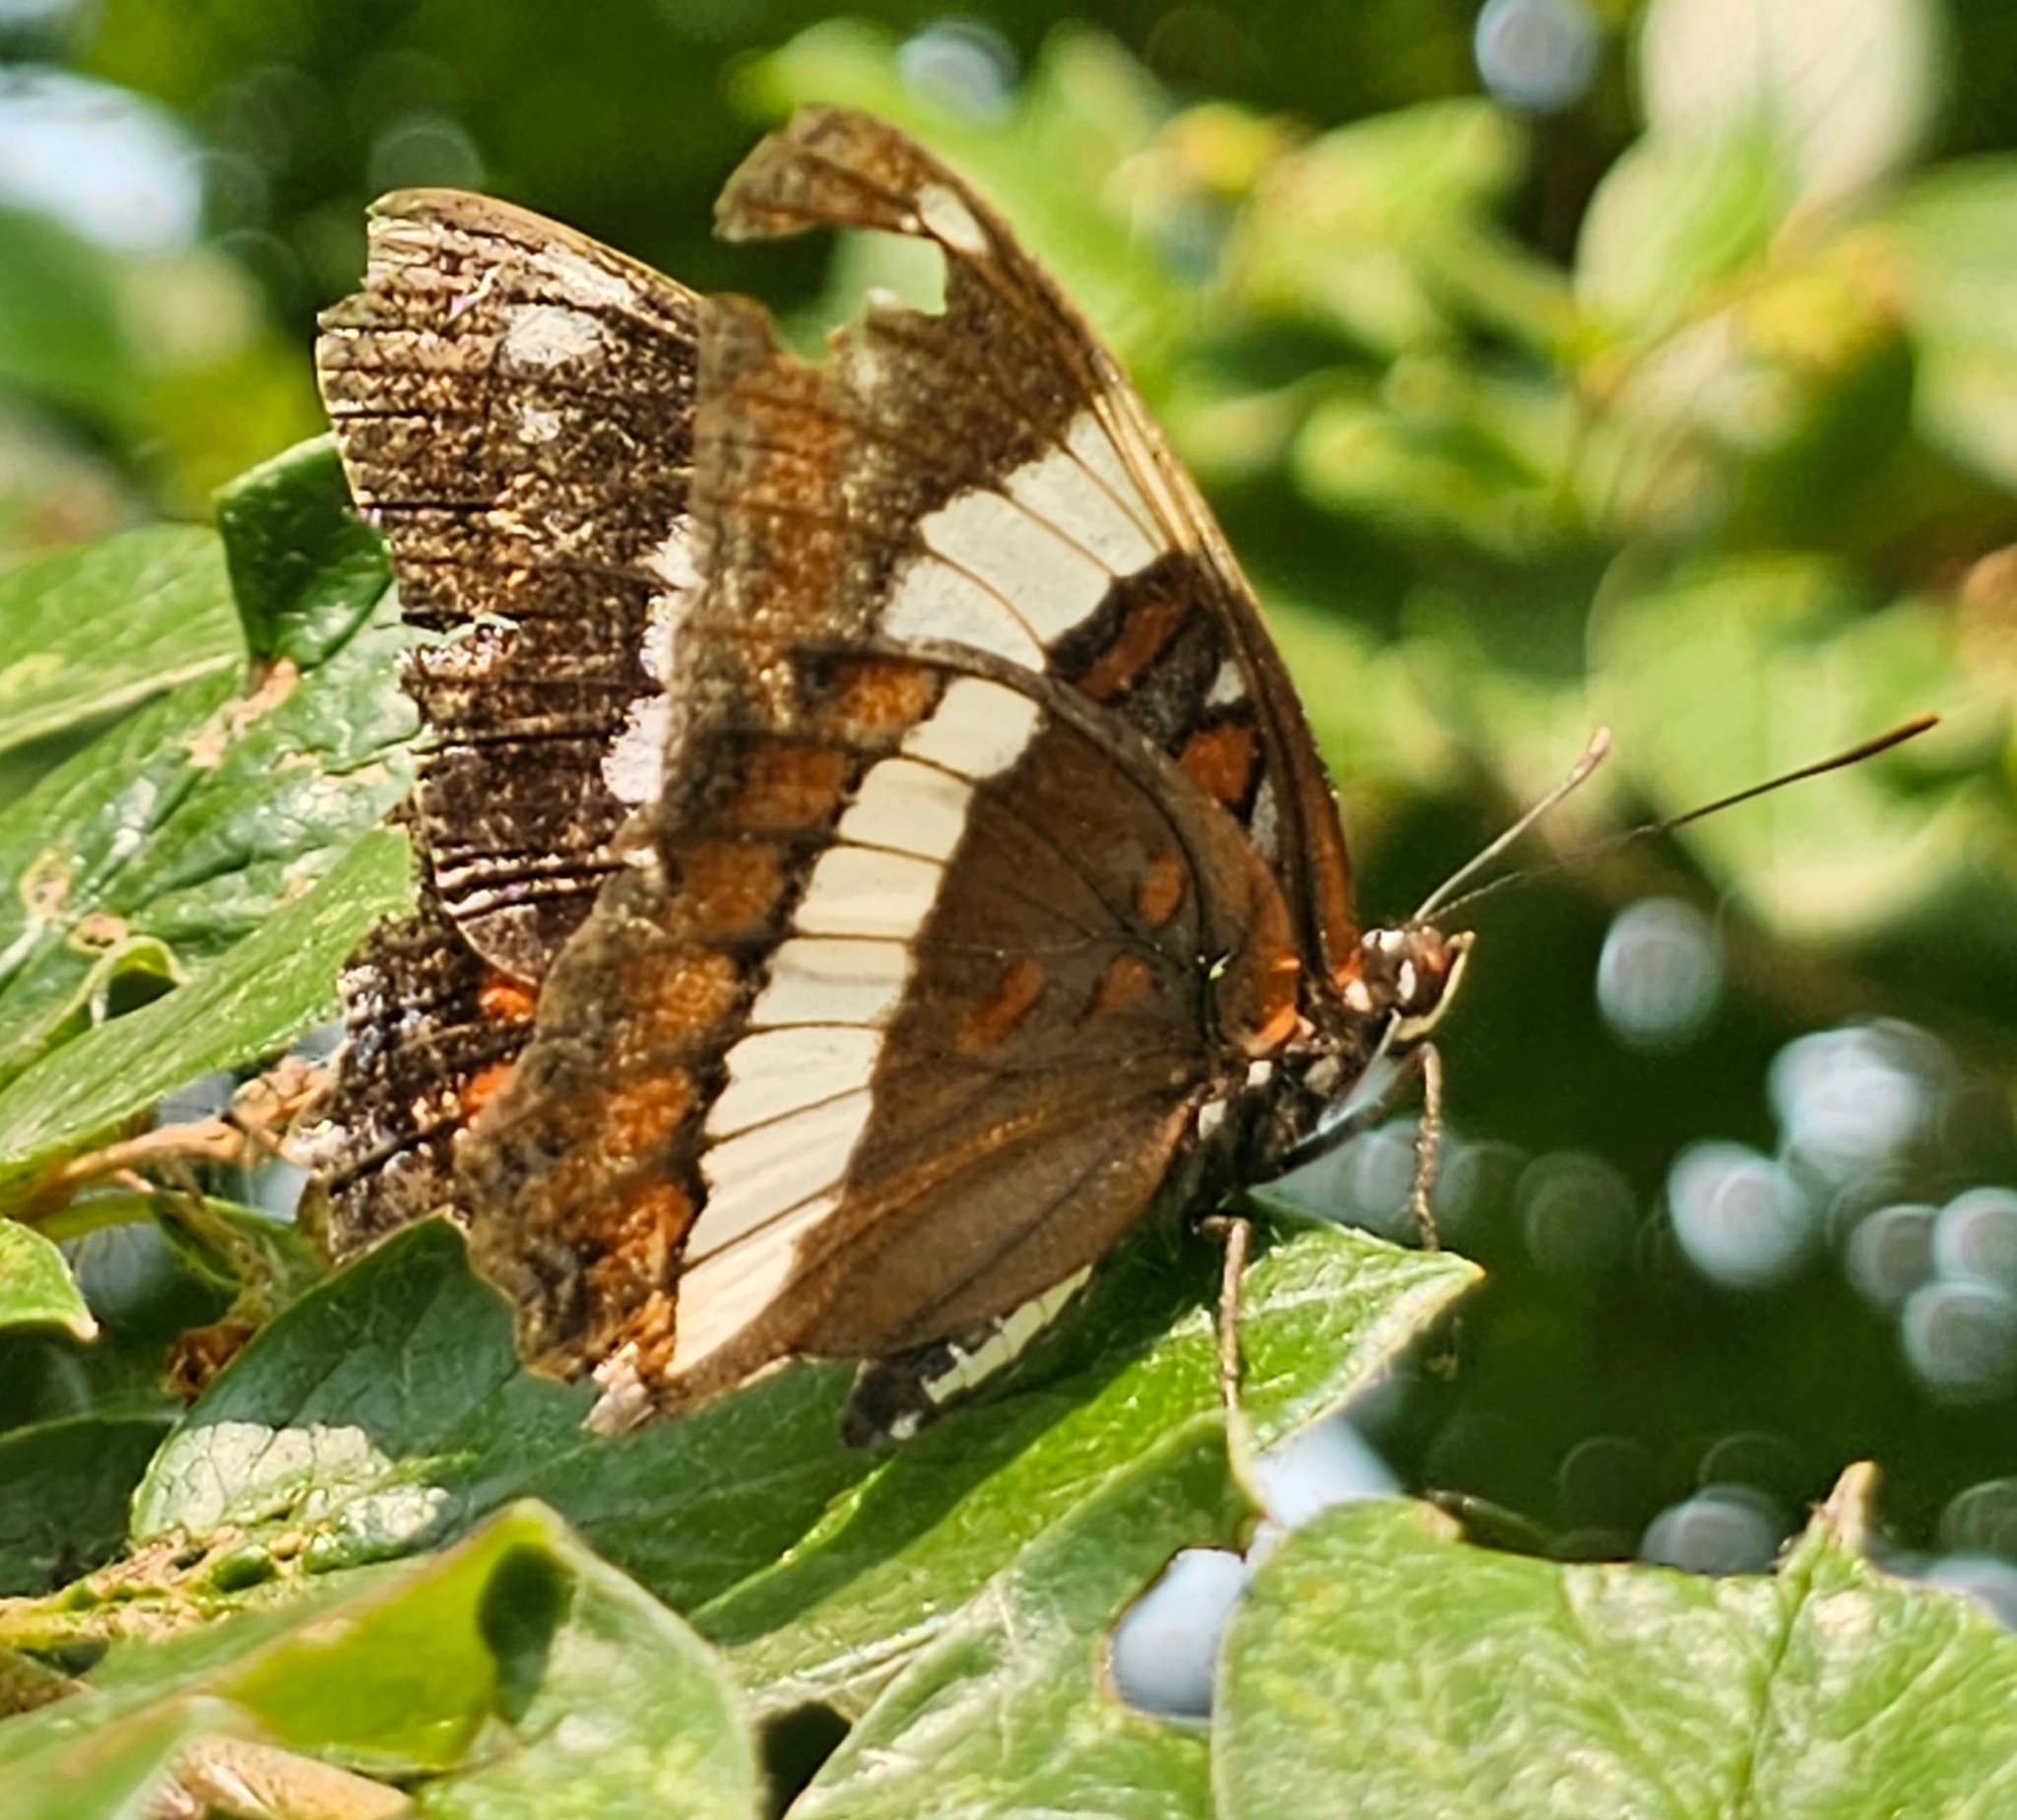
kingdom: Animalia
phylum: Arthropoda
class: Insecta
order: Lepidoptera
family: Nymphalidae
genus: Limenitis
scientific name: Limenitis arthemis
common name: Red-spotted admiral
